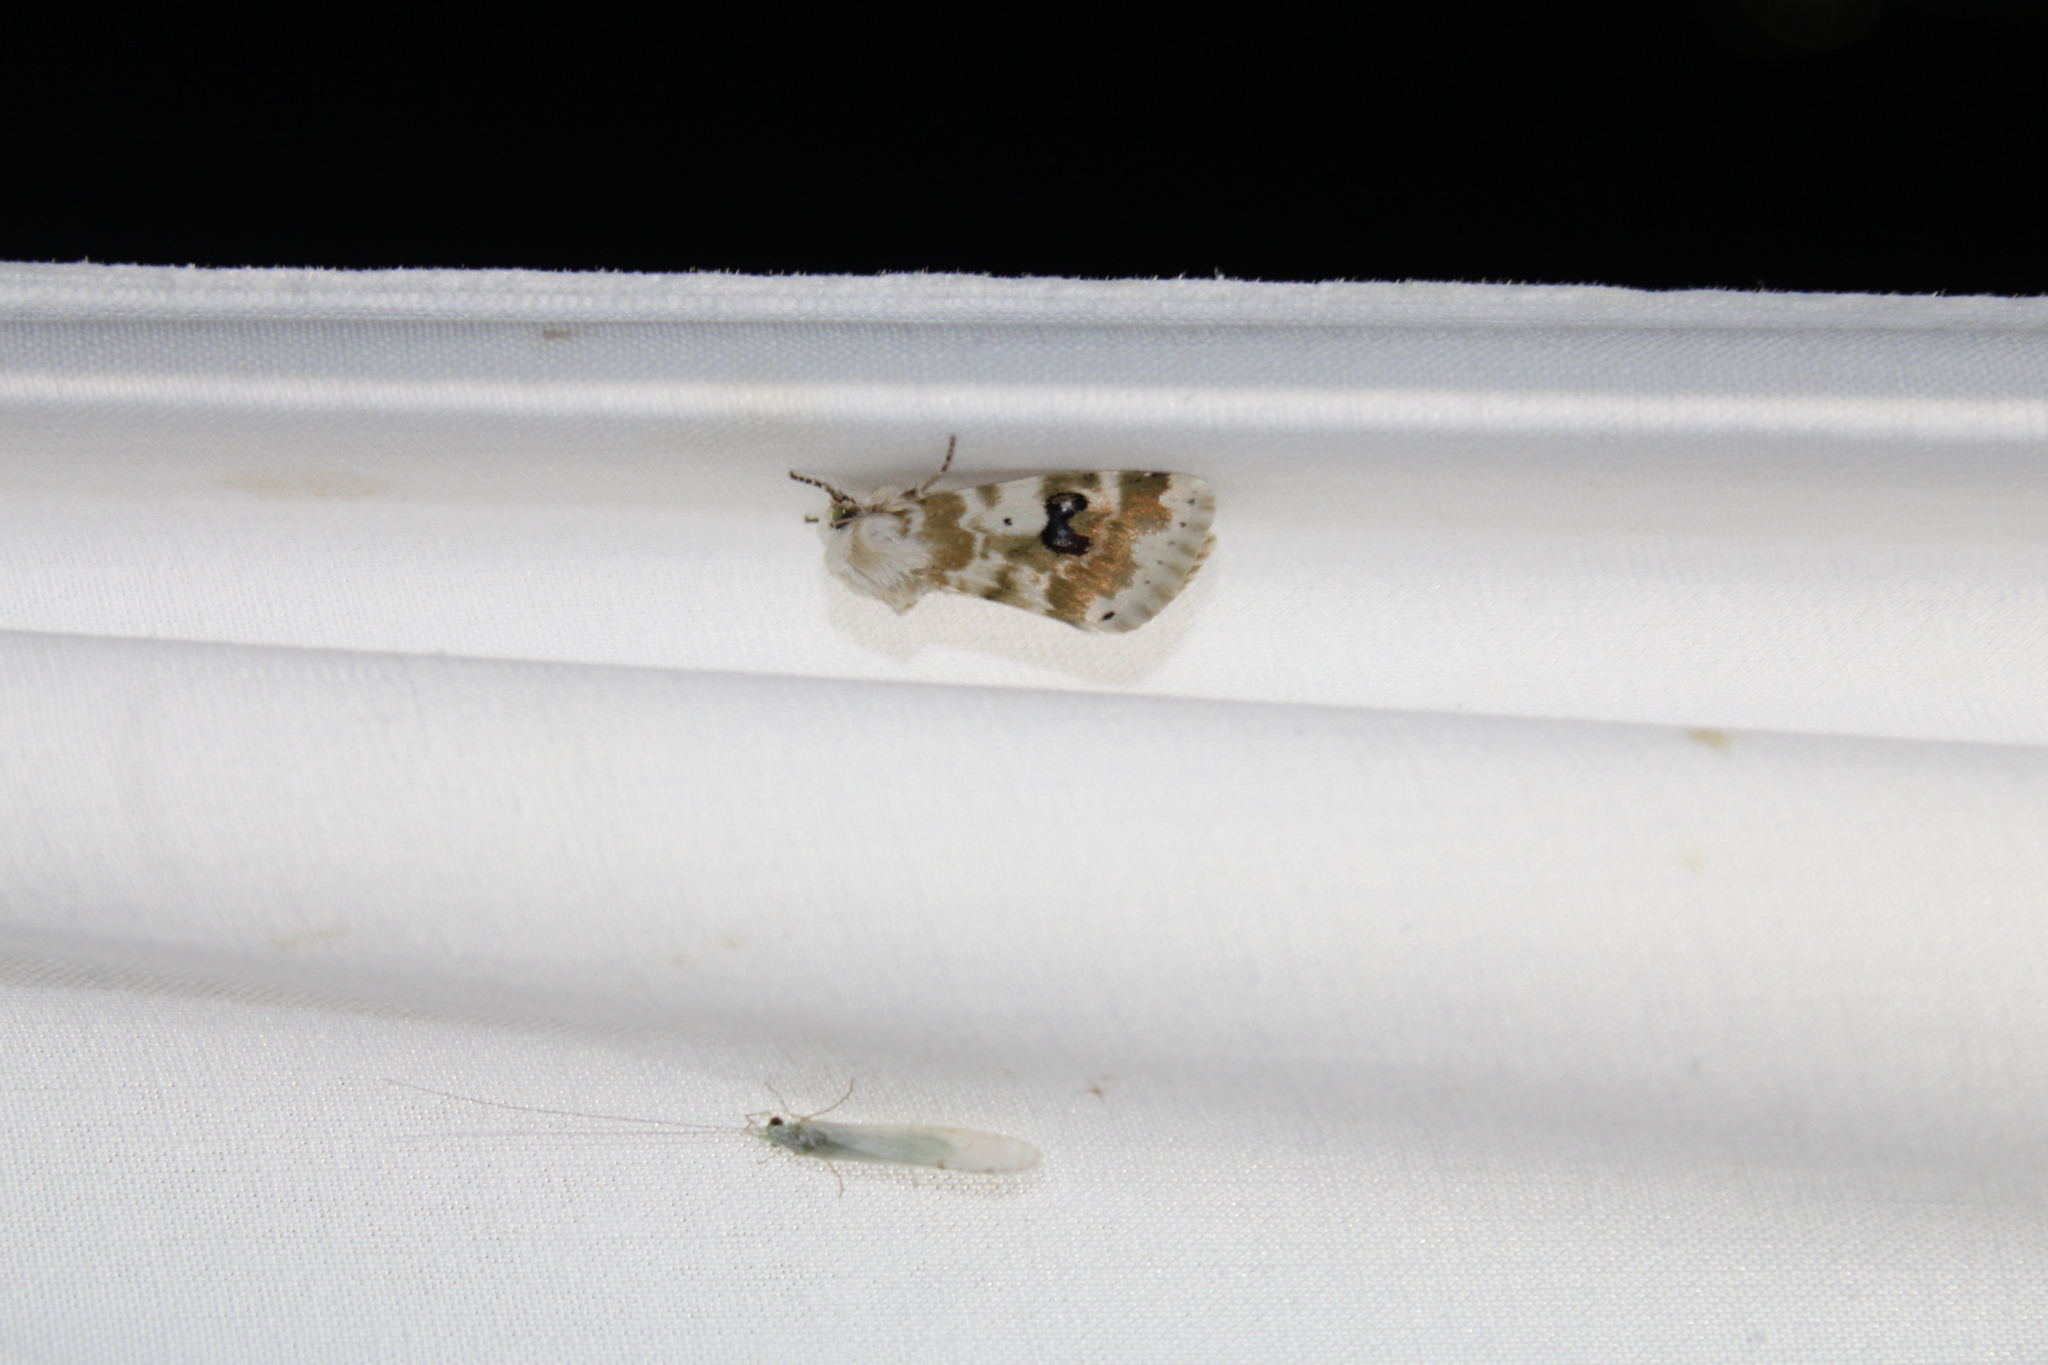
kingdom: Animalia
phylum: Arthropoda
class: Insecta
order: Lepidoptera
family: Noctuidae
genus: Schinia
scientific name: Schinia nundina
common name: Goldenrod flower moth
